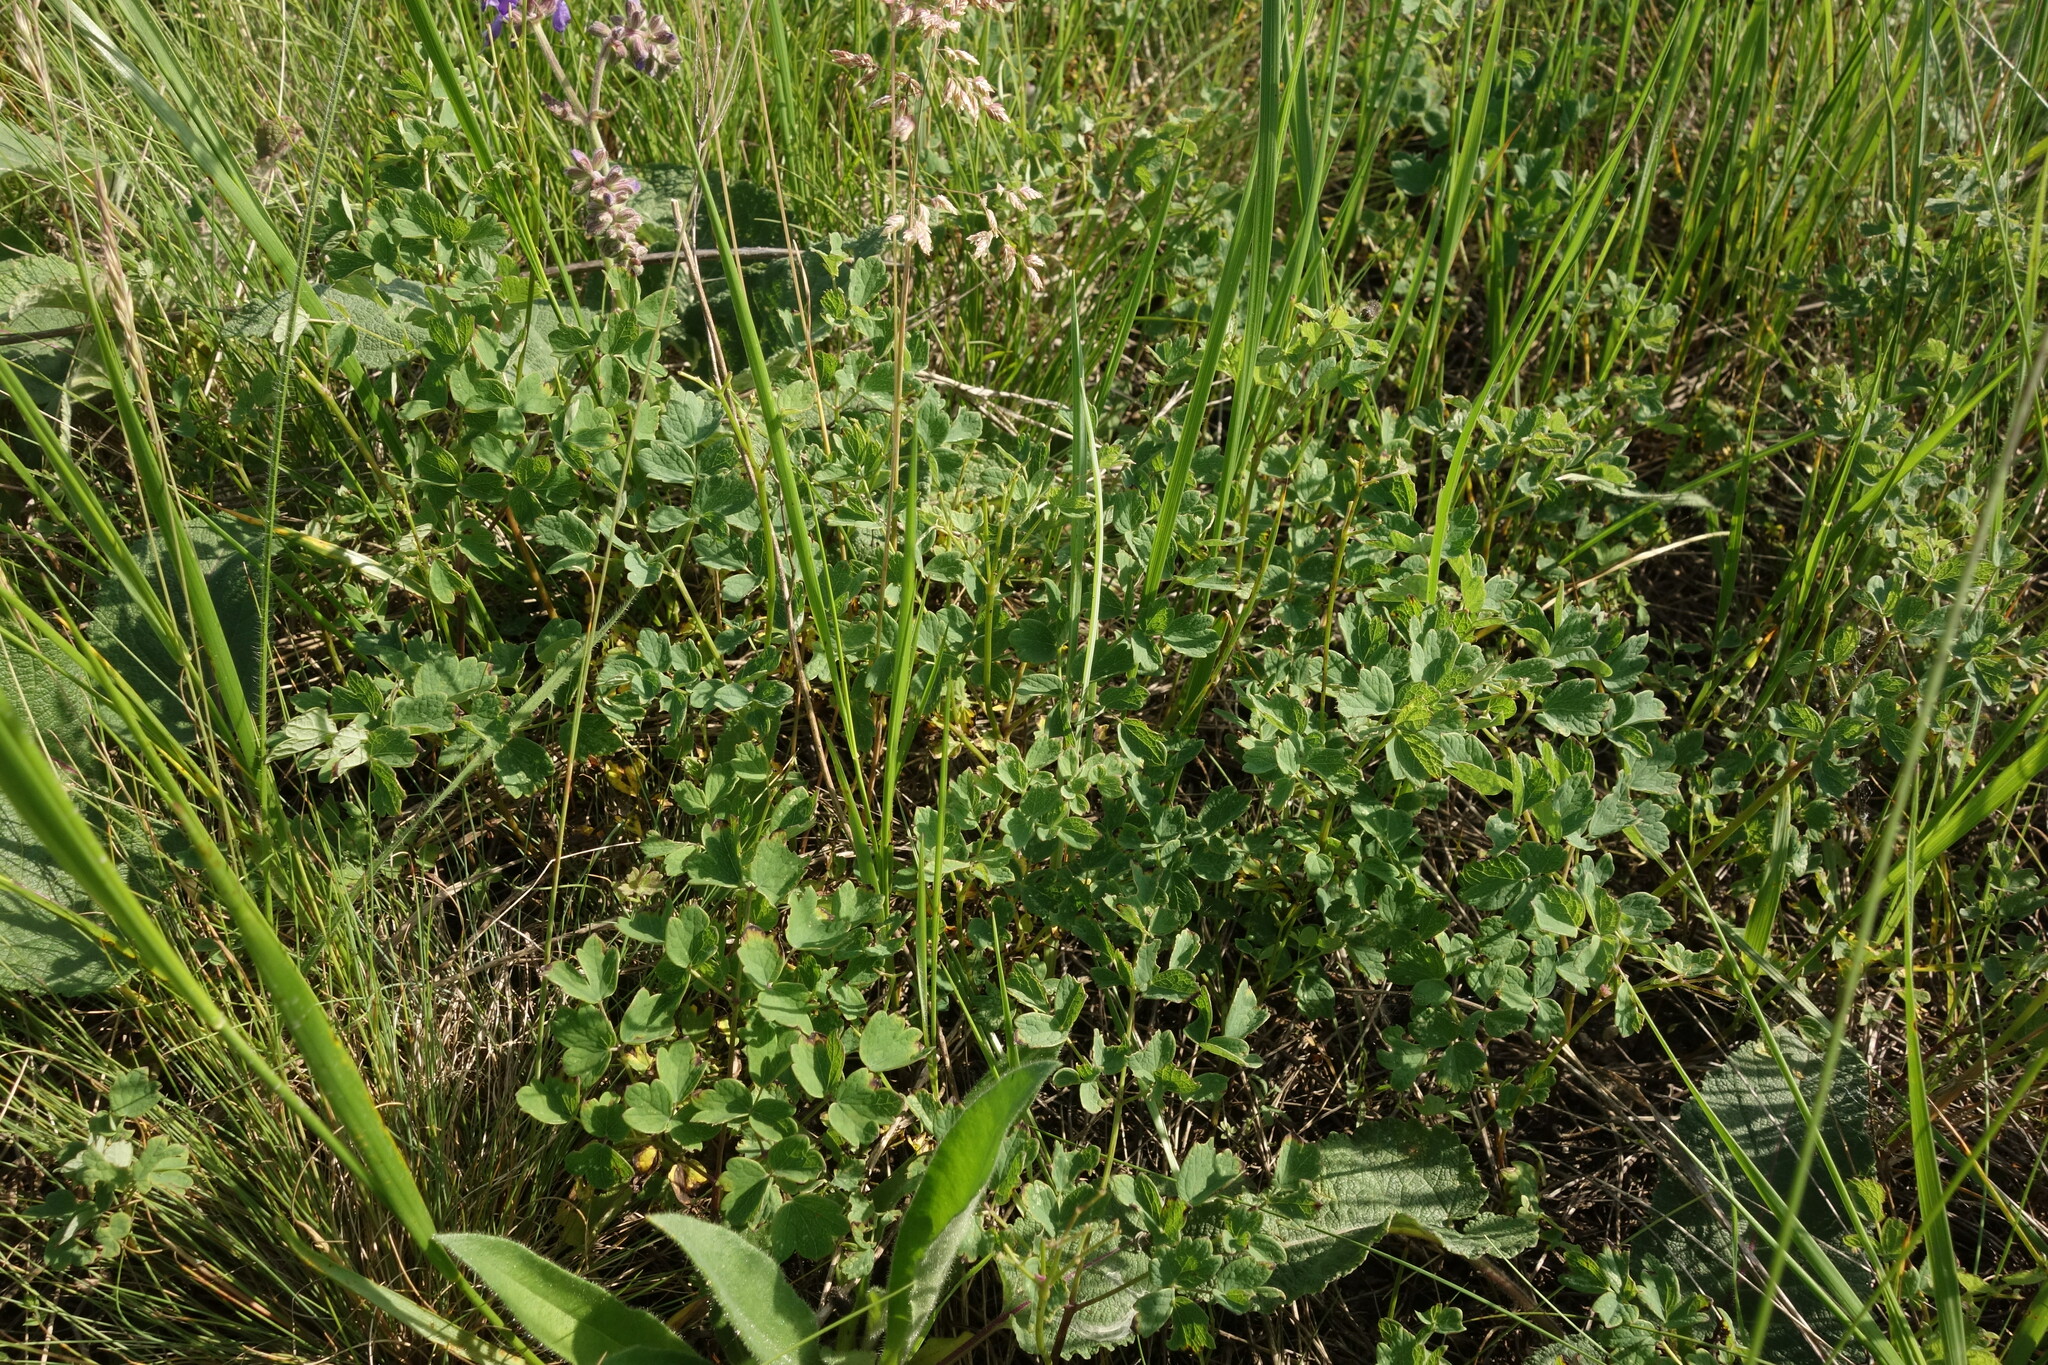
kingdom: Plantae
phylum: Tracheophyta
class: Magnoliopsida
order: Ranunculales
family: Ranunculaceae
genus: Thalictrum
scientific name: Thalictrum minus
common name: Lesser meadow-rue
